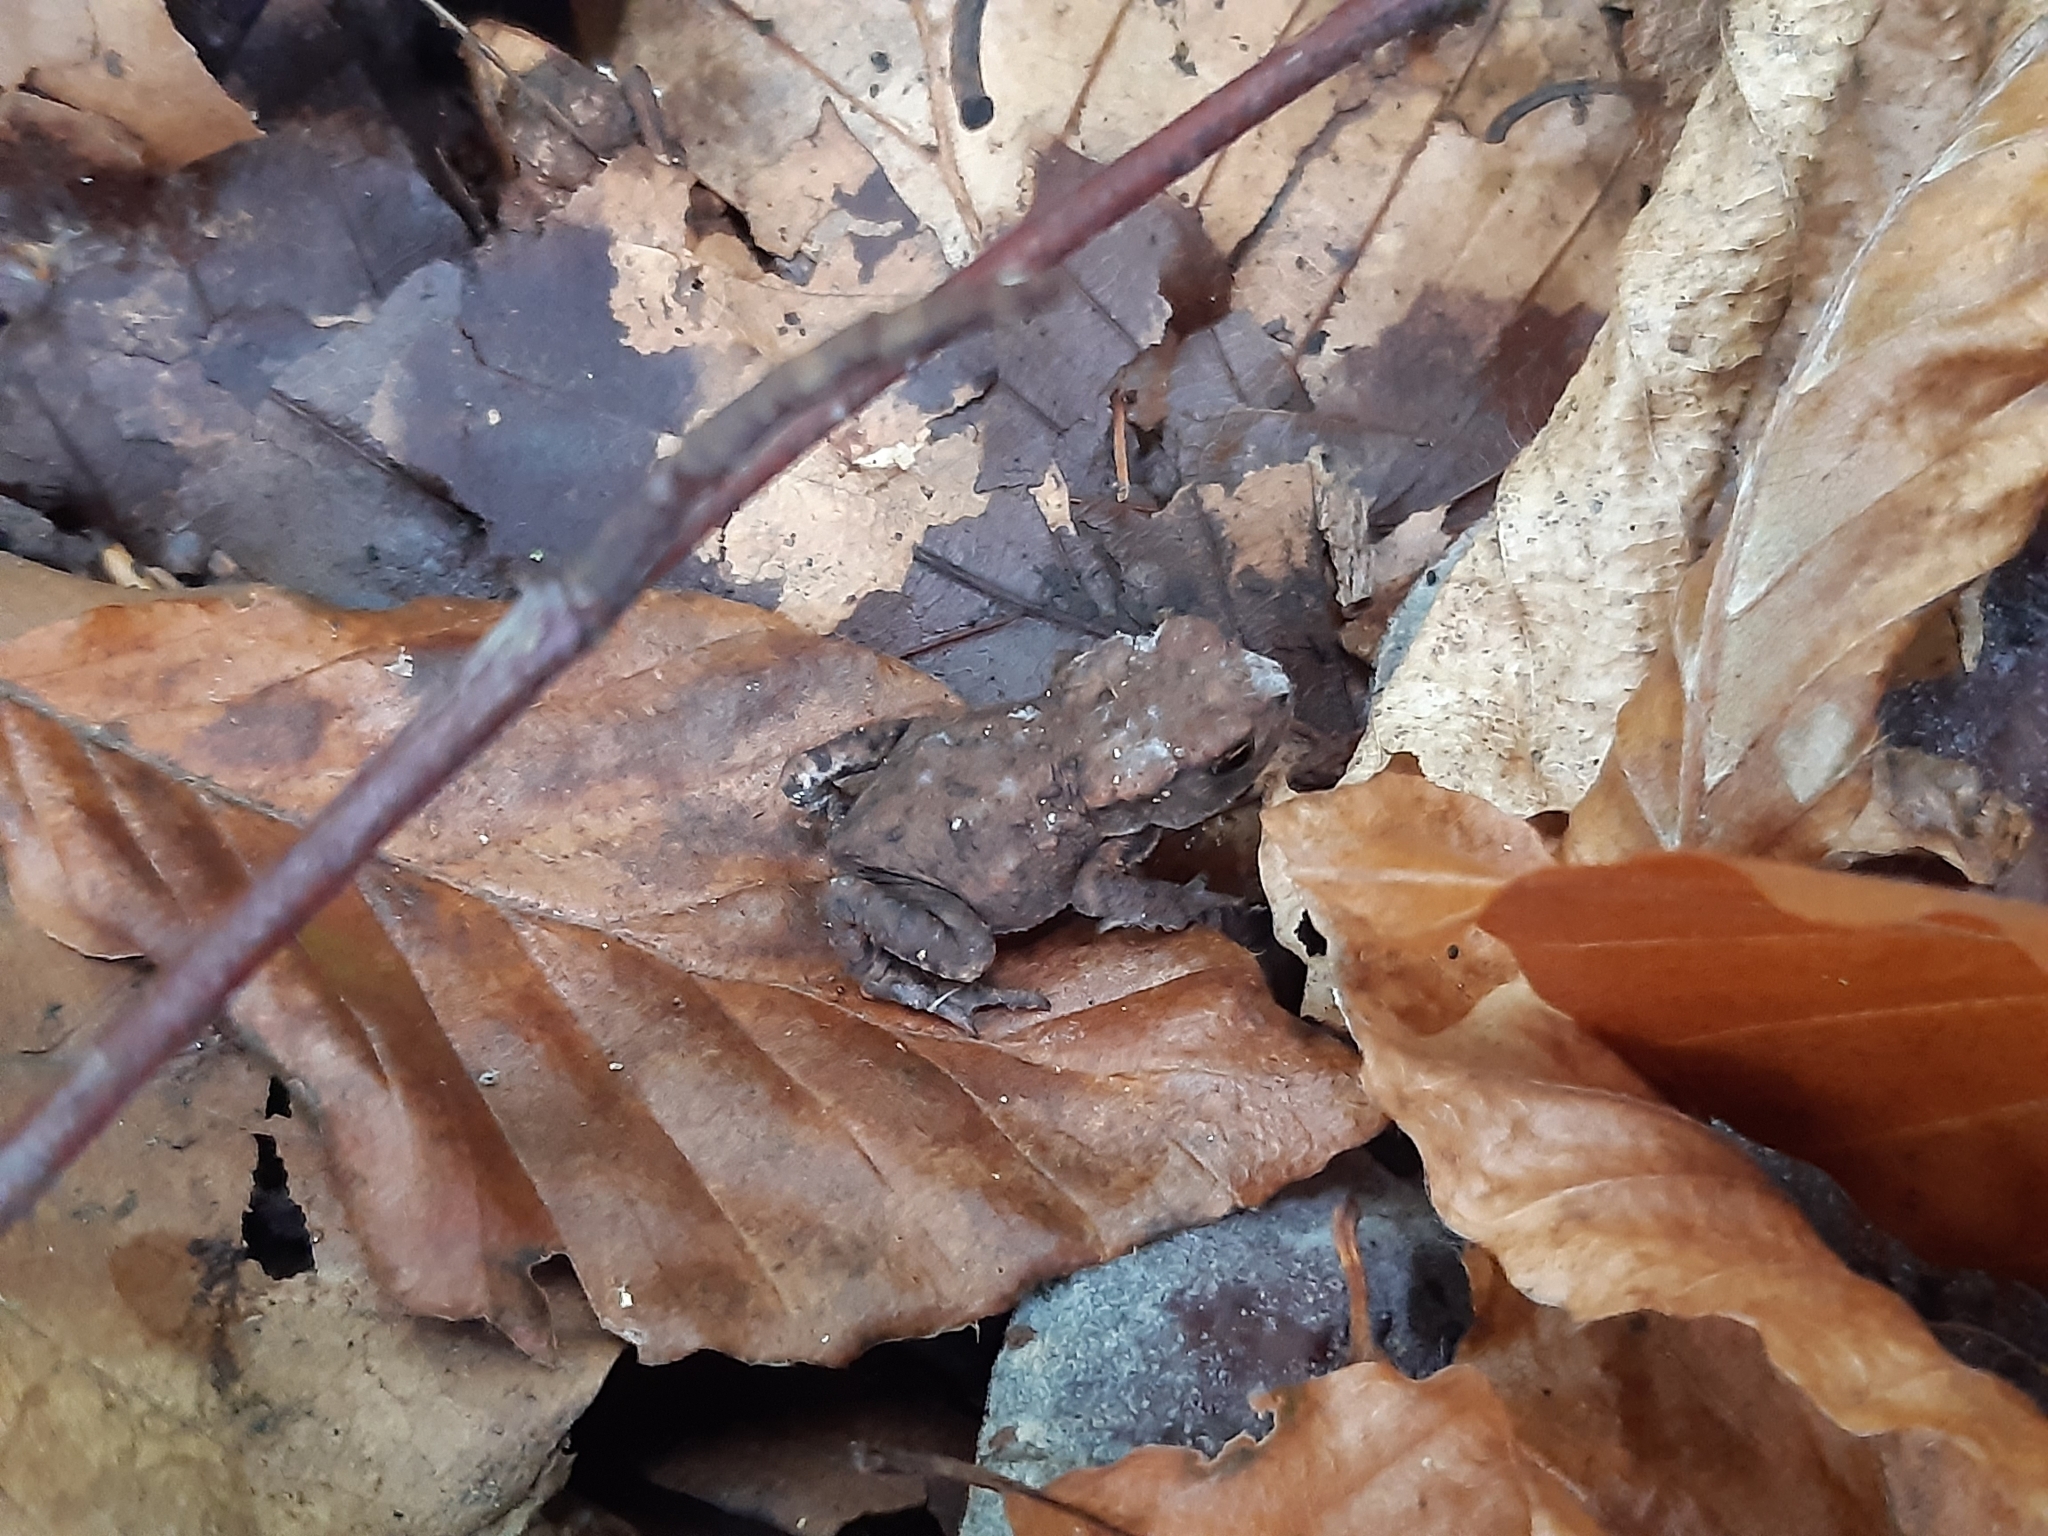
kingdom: Animalia
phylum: Chordata
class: Amphibia
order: Anura
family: Bufonidae
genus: Bufo
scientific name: Bufo bufo
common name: Common toad
